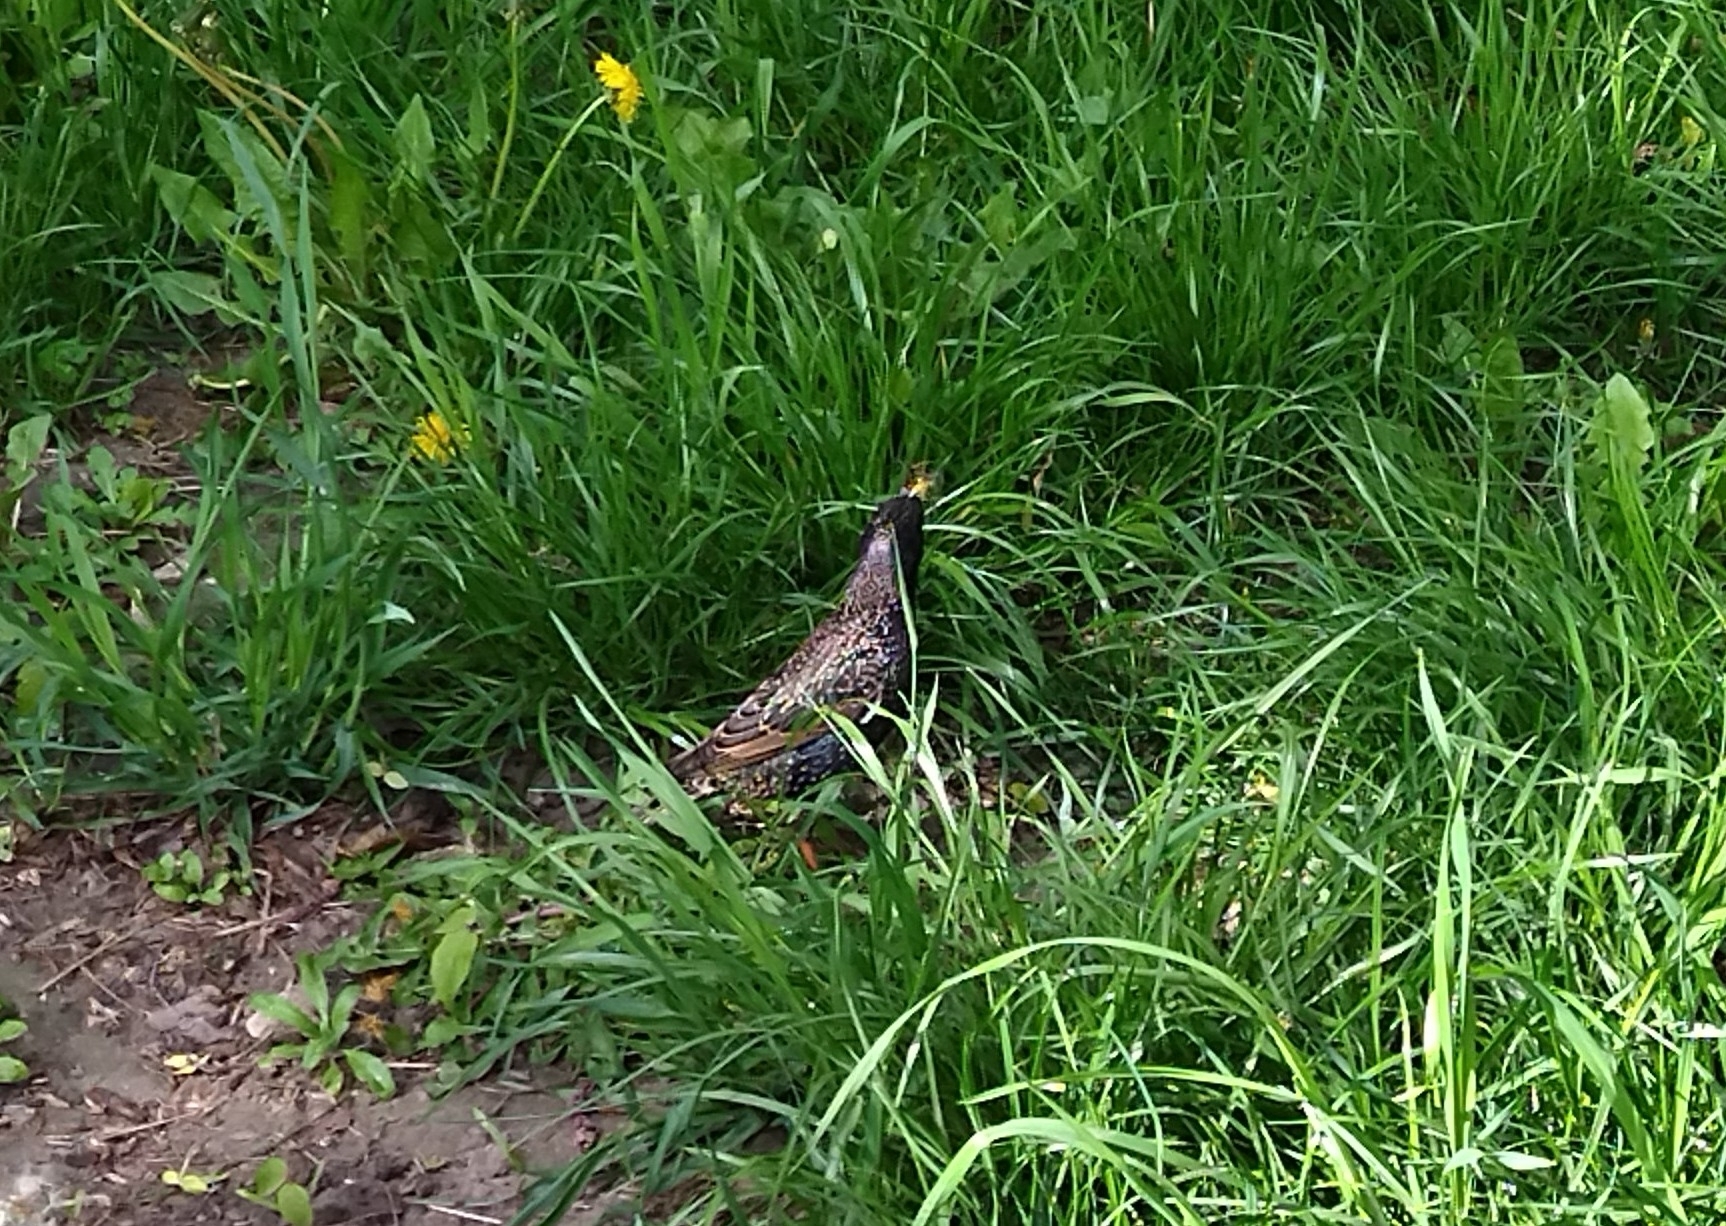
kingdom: Animalia
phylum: Chordata
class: Aves
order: Passeriformes
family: Sturnidae
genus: Sturnus
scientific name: Sturnus vulgaris
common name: Common starling
